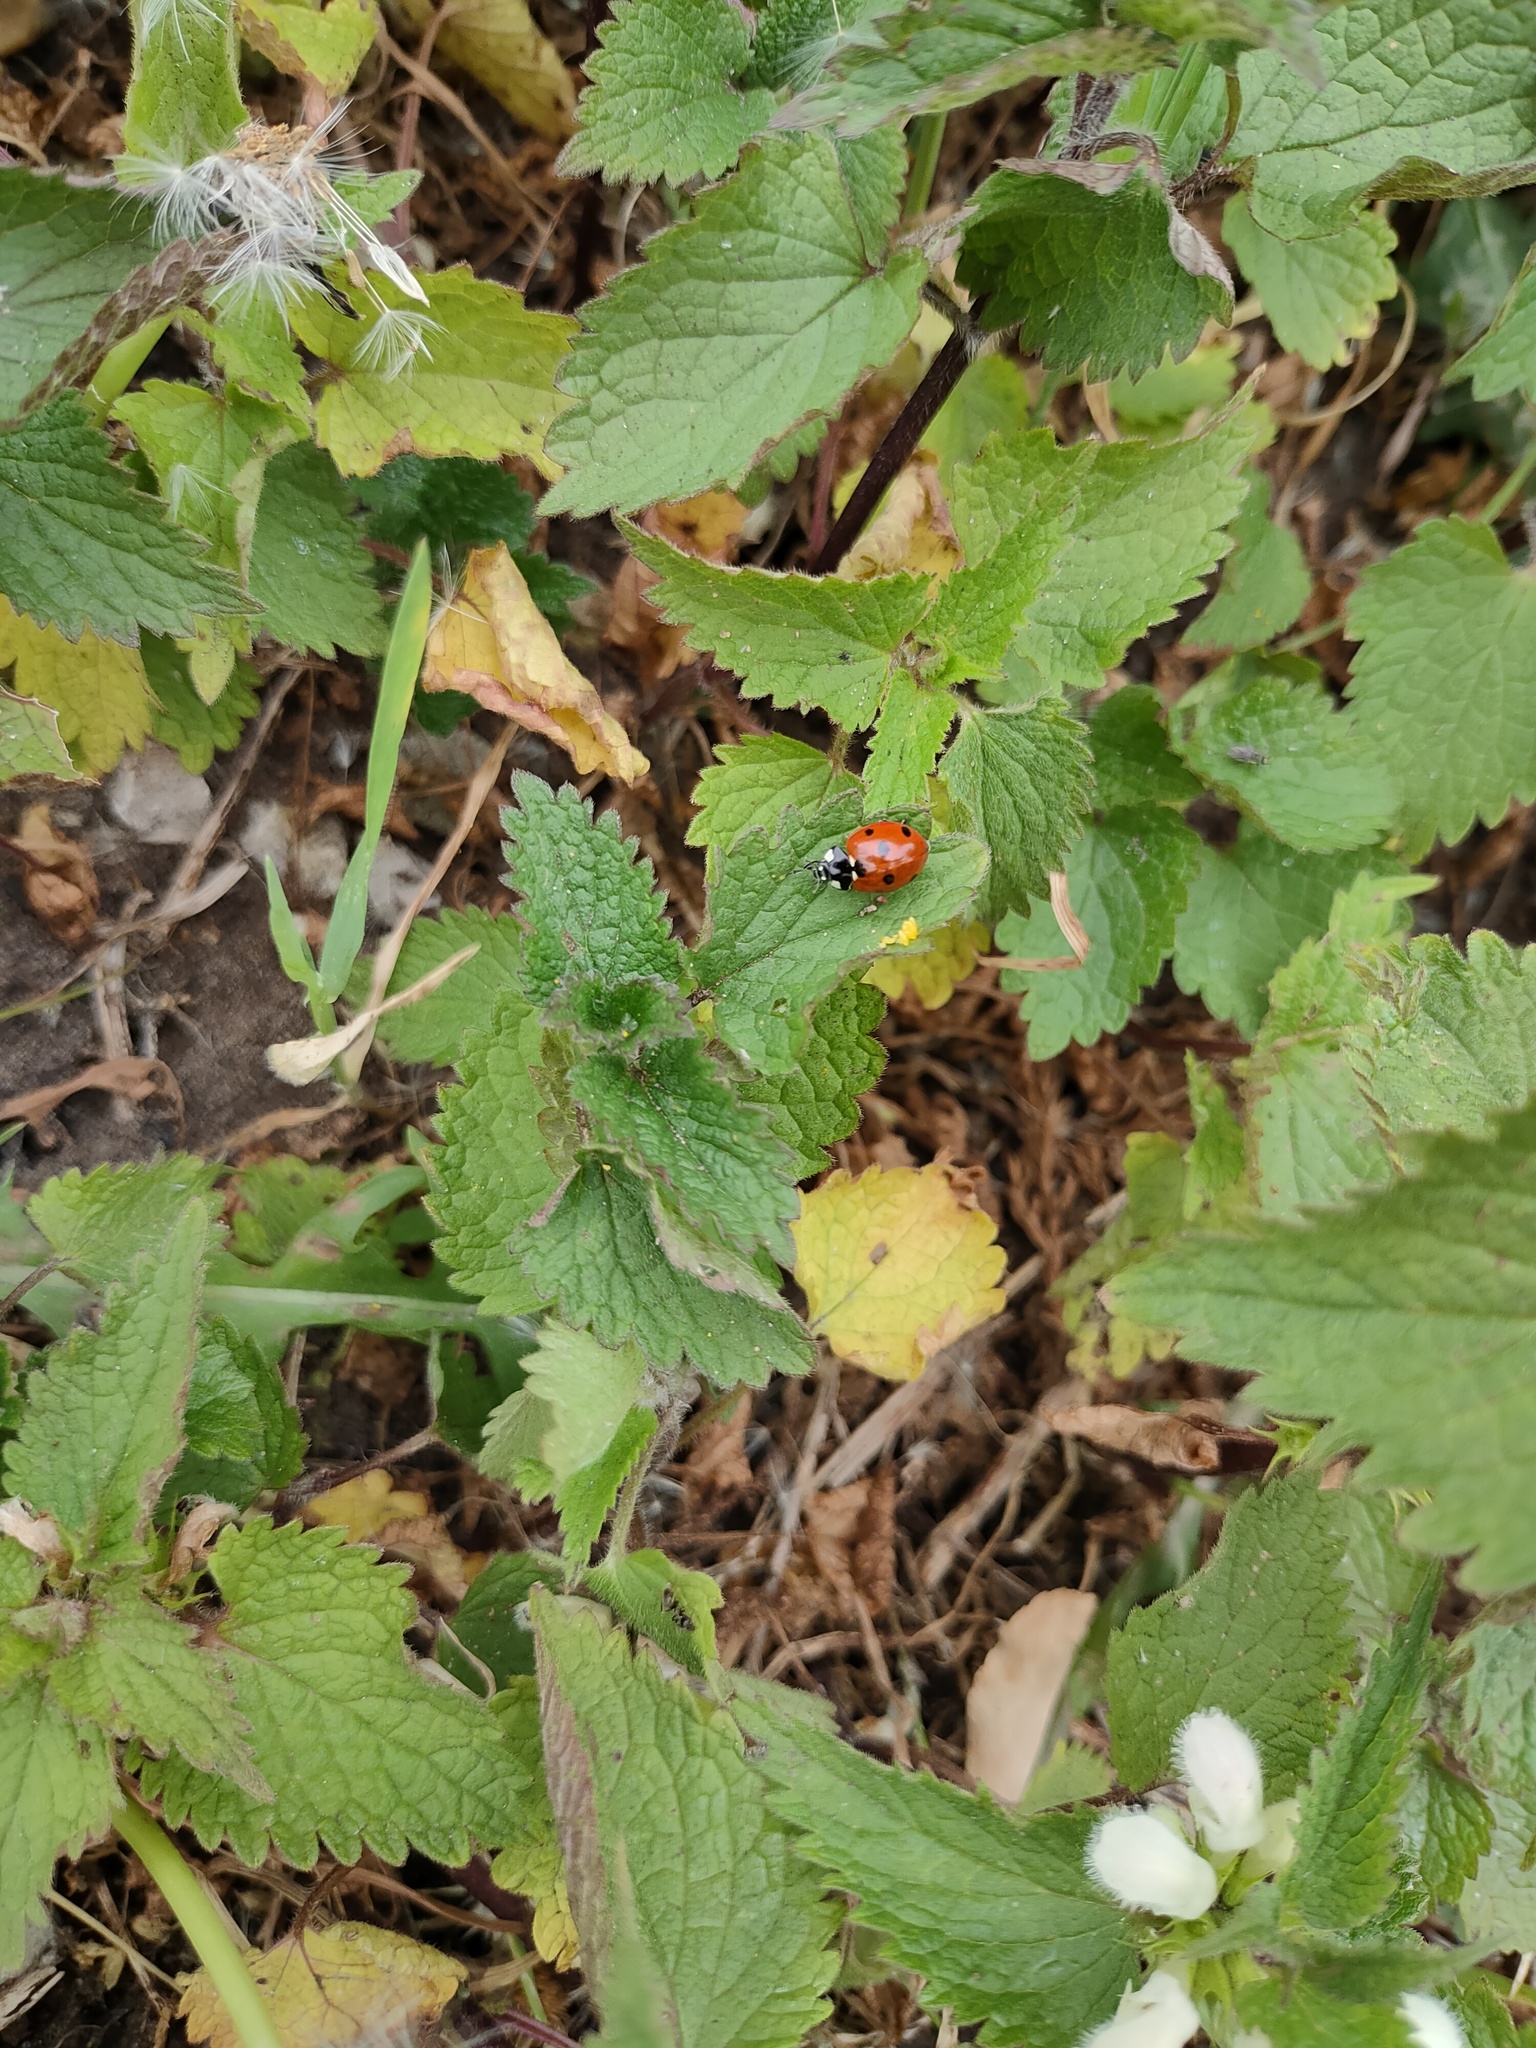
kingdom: Animalia
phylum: Arthropoda
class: Insecta
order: Coleoptera
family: Coccinellidae
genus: Coccinella
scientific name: Coccinella septempunctata
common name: Sevenspotted lady beetle
